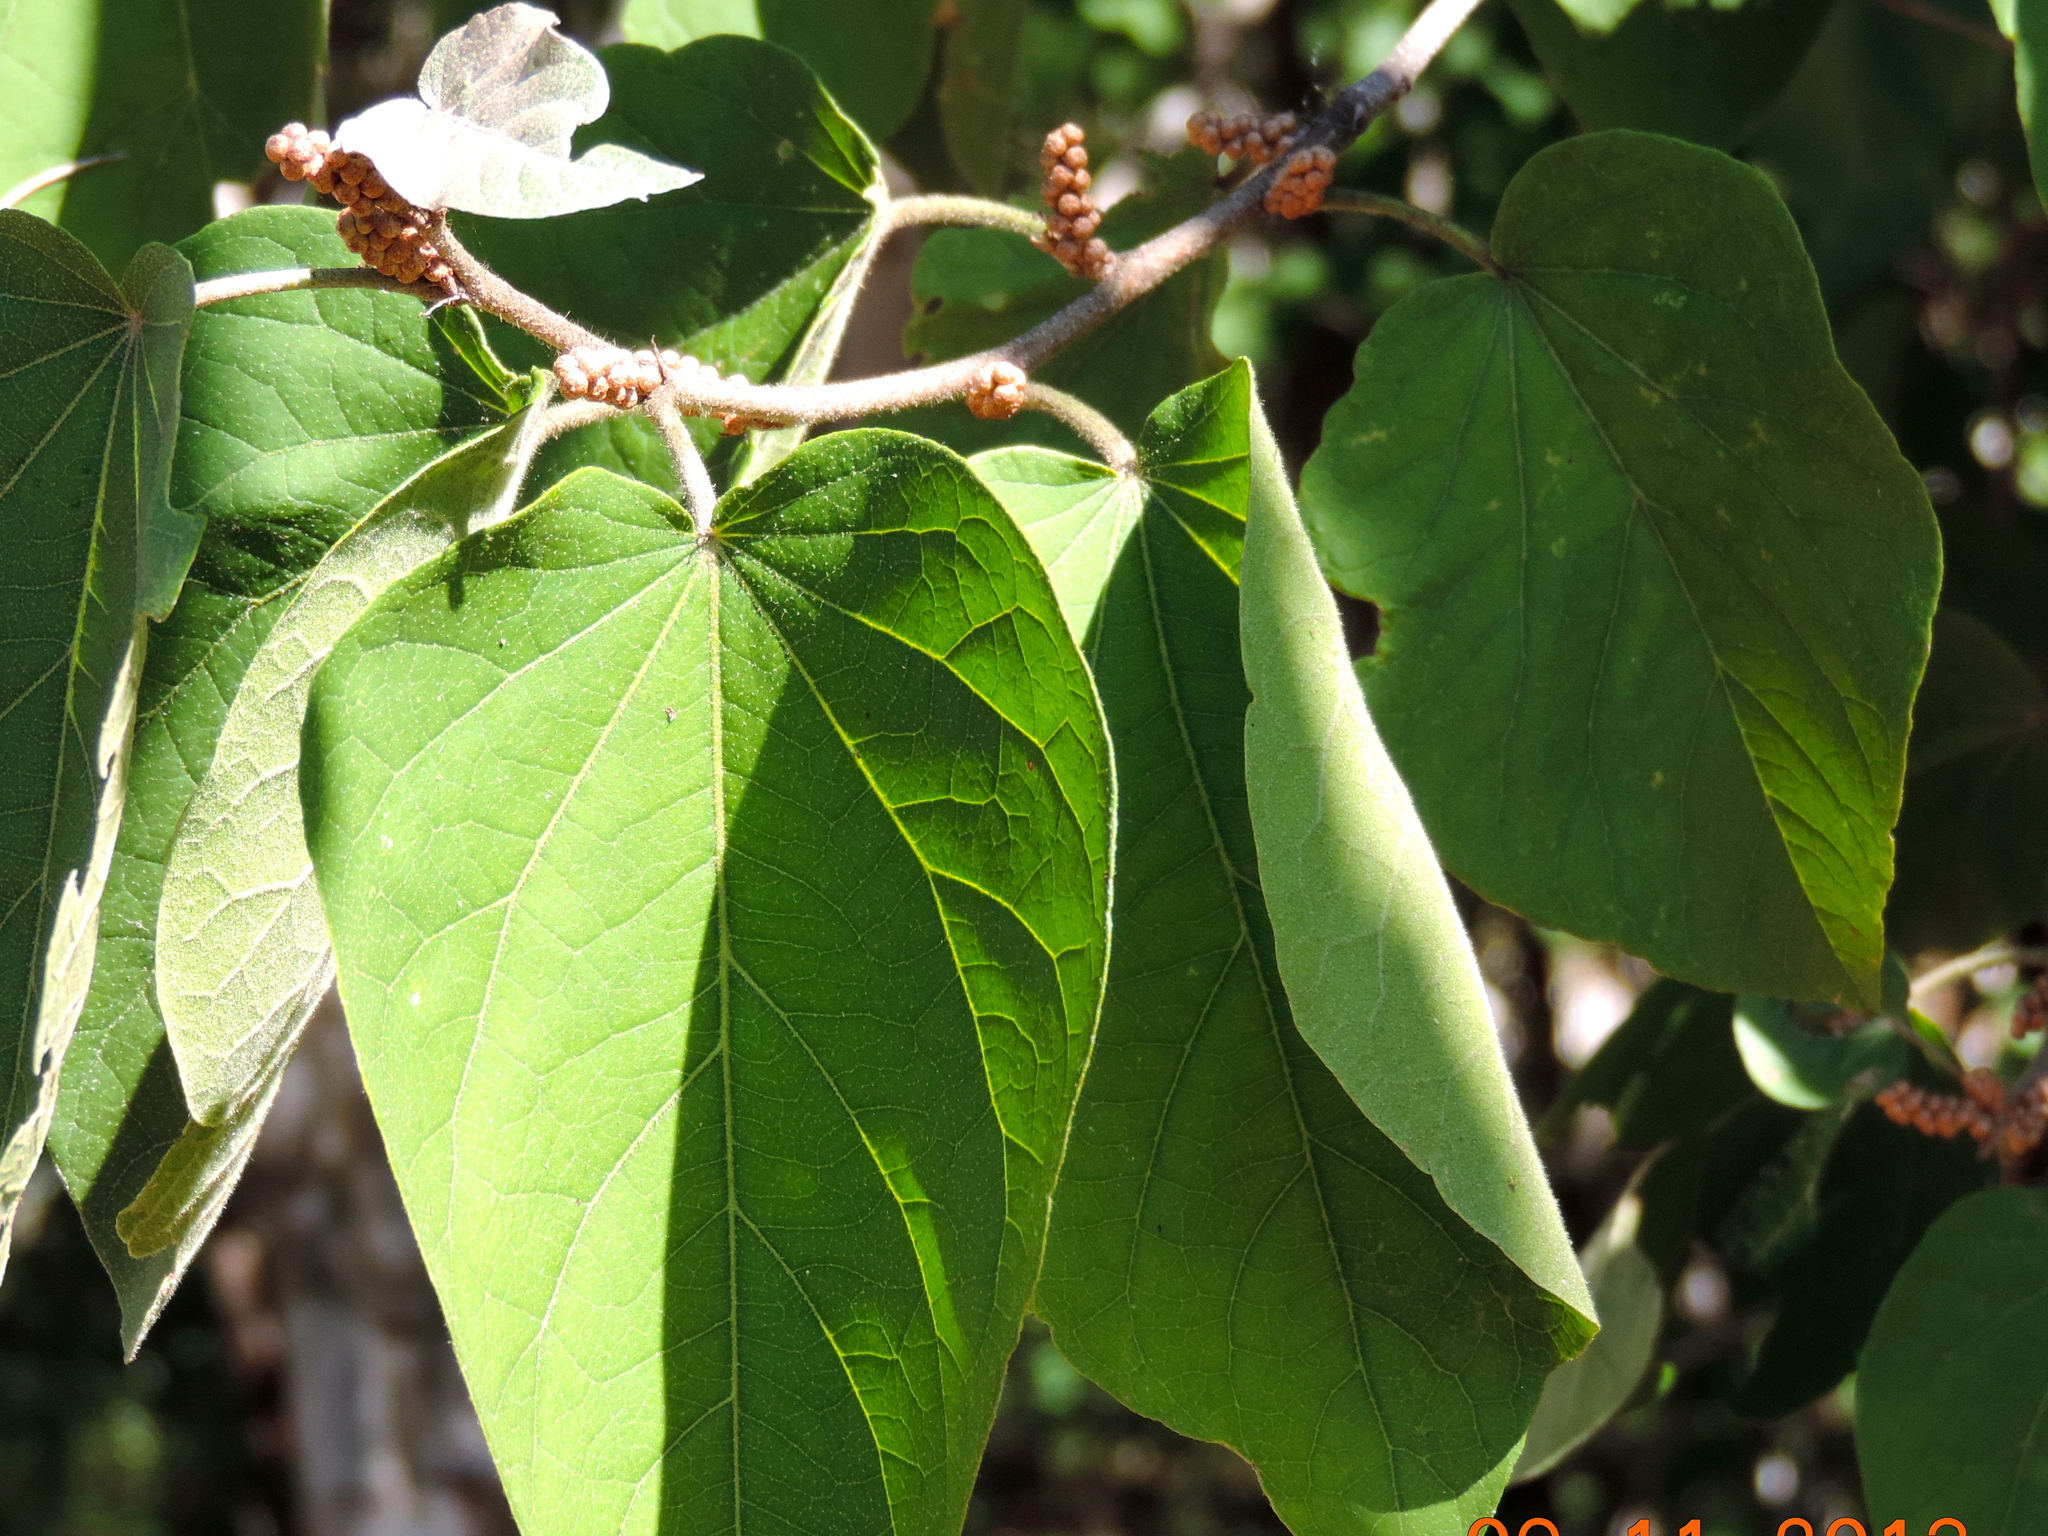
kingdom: Plantae
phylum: Tracheophyta
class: Magnoliopsida
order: Malpighiales
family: Euphorbiaceae
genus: Croton
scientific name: Croton lindquistii
